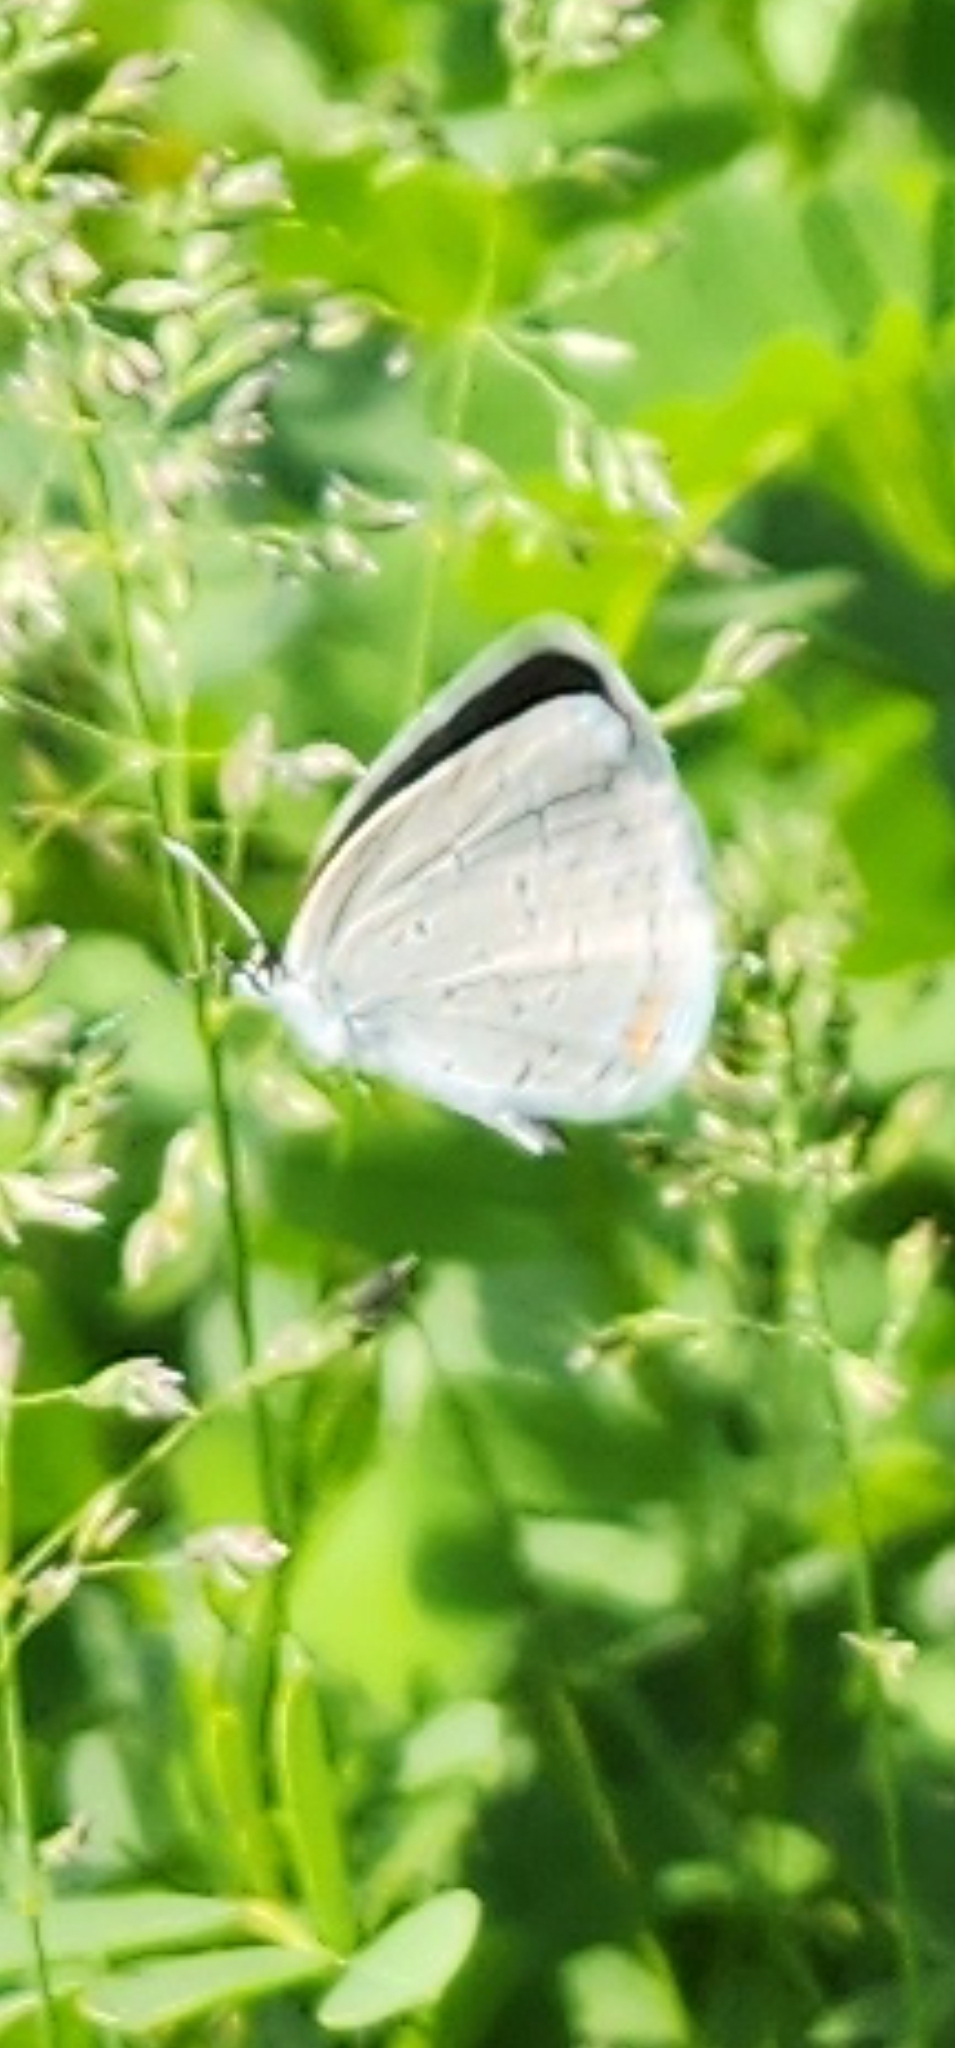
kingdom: Animalia
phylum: Arthropoda
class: Insecta
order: Lepidoptera
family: Lycaenidae
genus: Elkalyce
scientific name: Elkalyce comyntas
